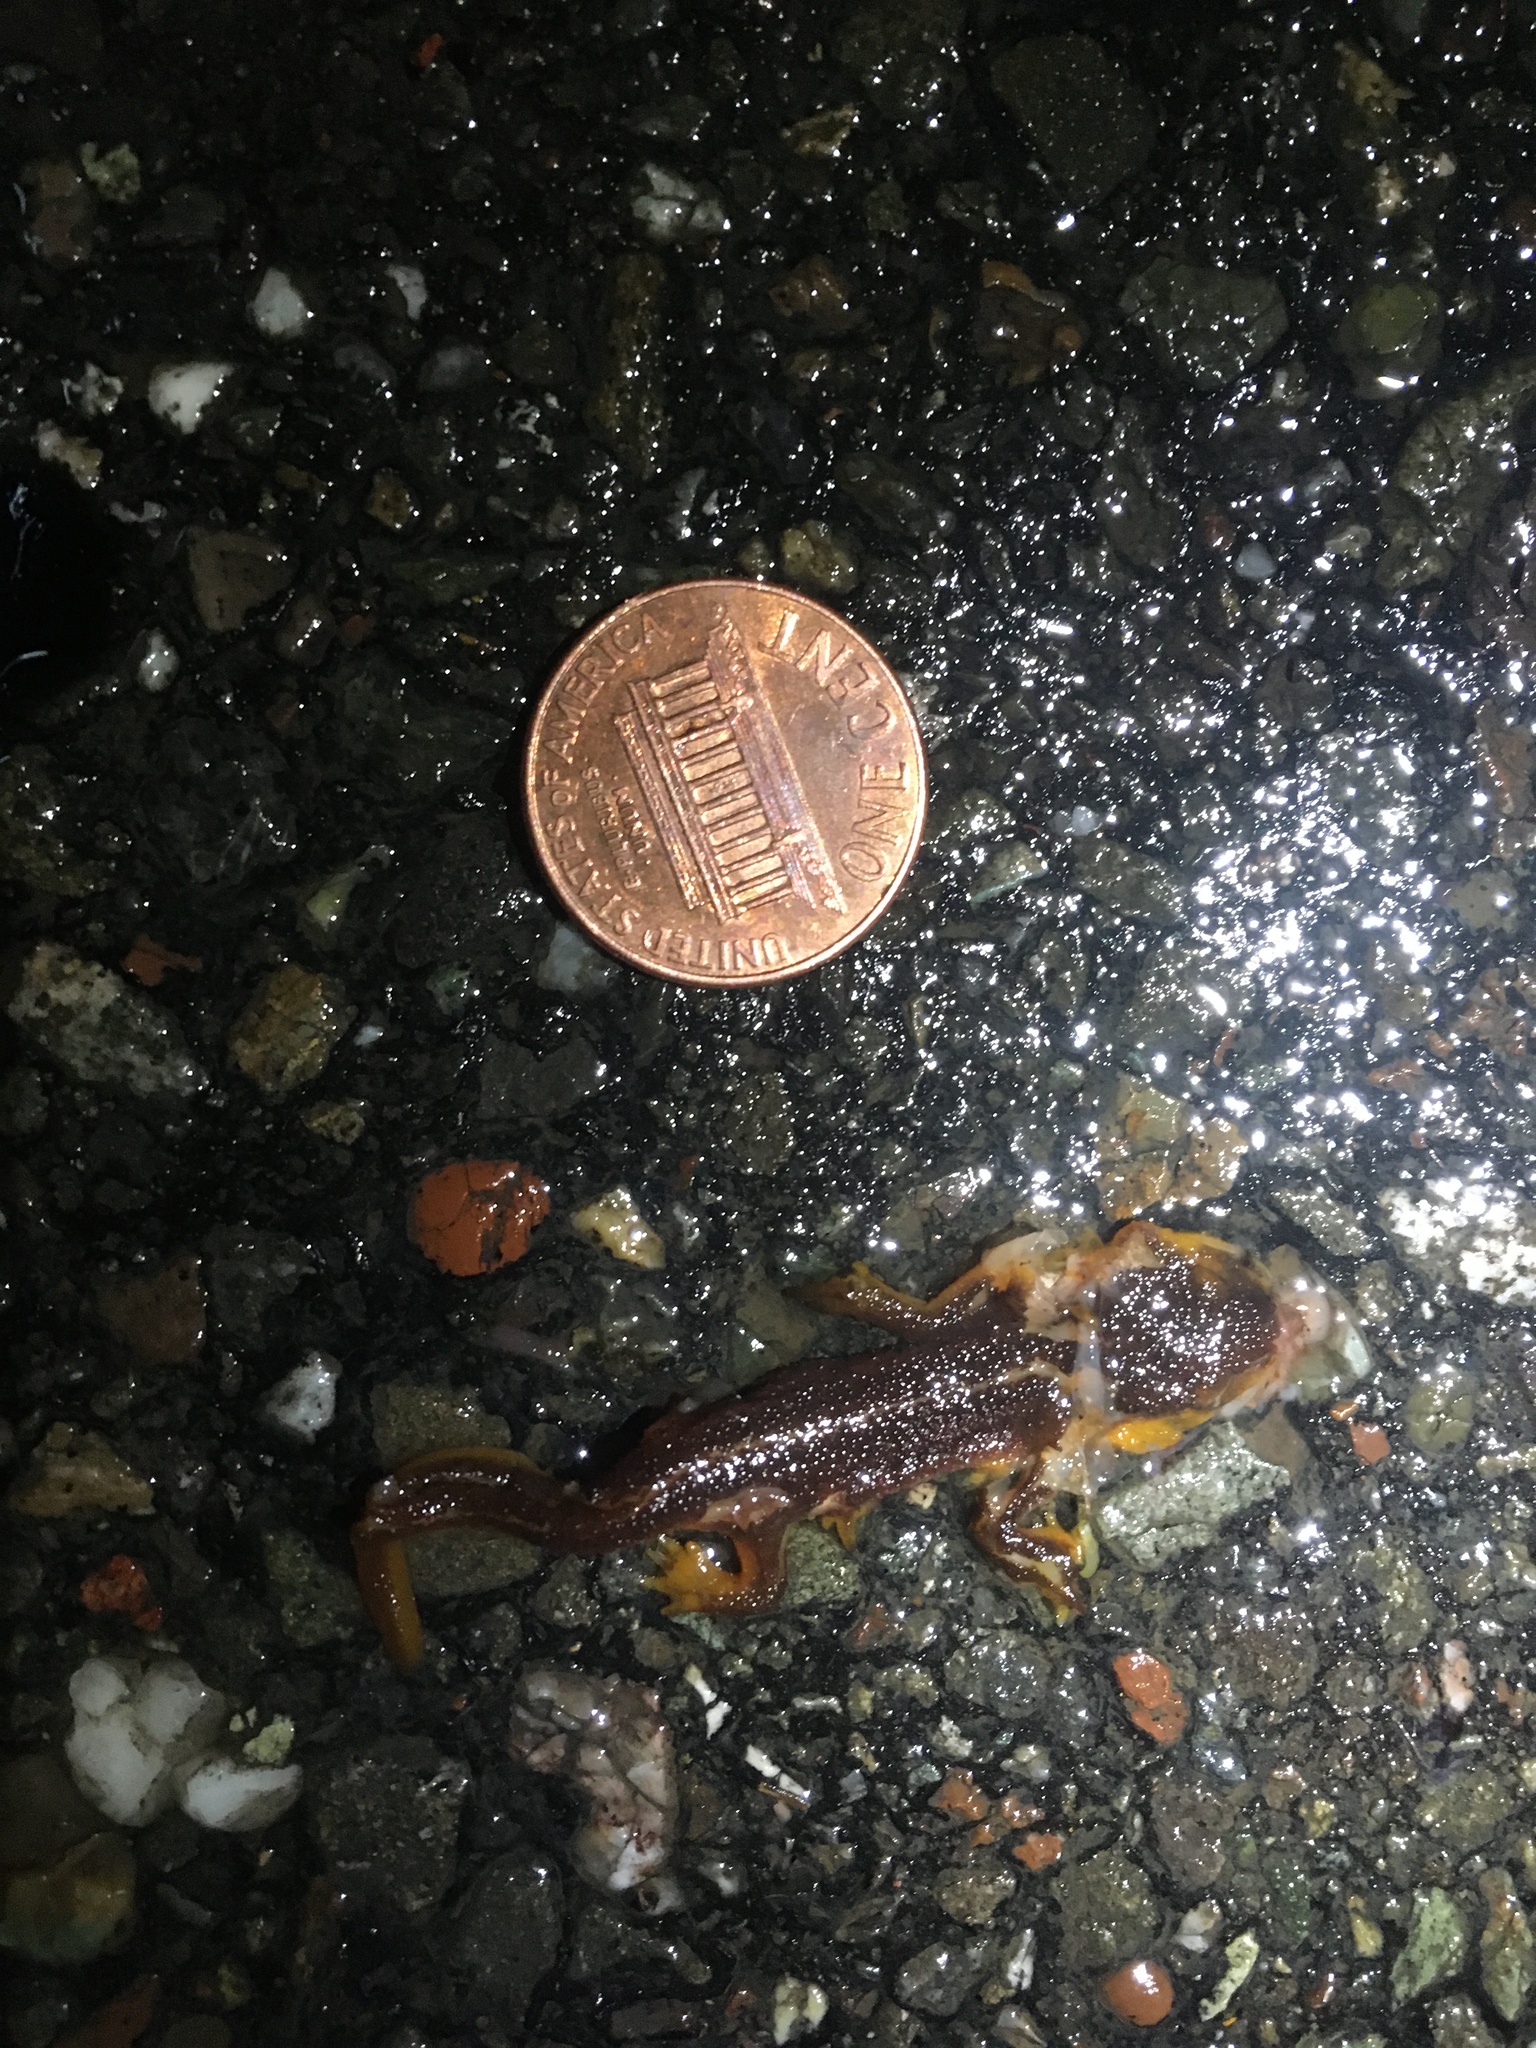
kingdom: Animalia
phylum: Chordata
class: Amphibia
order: Caudata
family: Salamandridae
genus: Taricha
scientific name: Taricha
